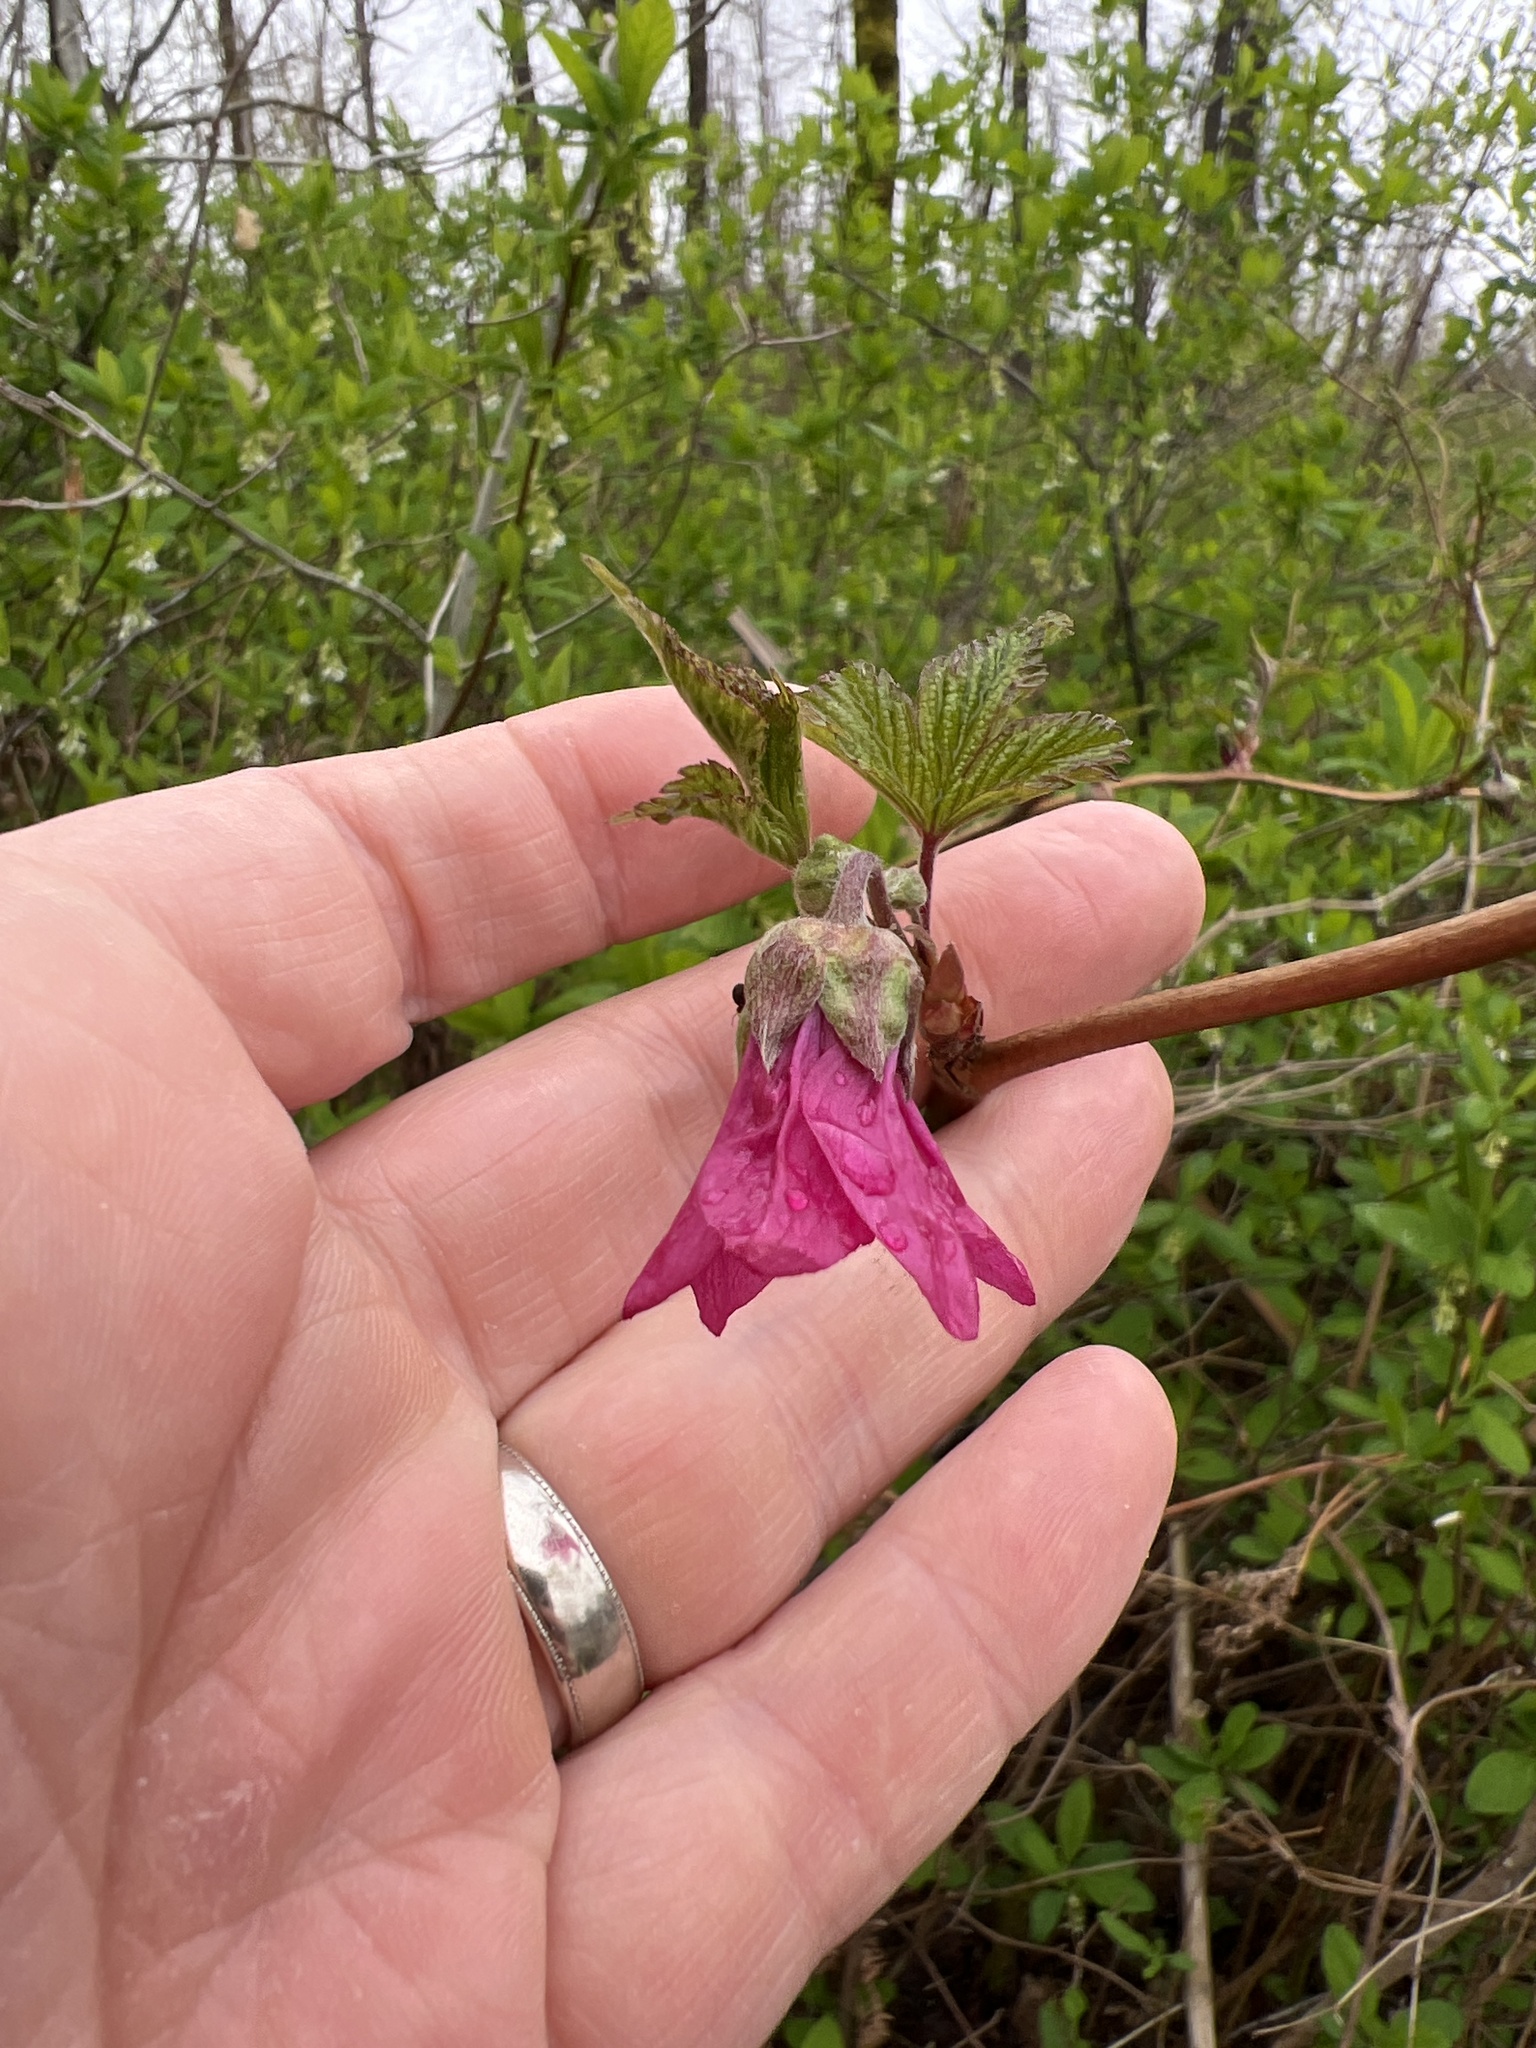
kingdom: Plantae
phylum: Tracheophyta
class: Magnoliopsida
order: Rosales
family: Rosaceae
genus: Rubus
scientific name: Rubus spectabilis
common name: Salmonberry
